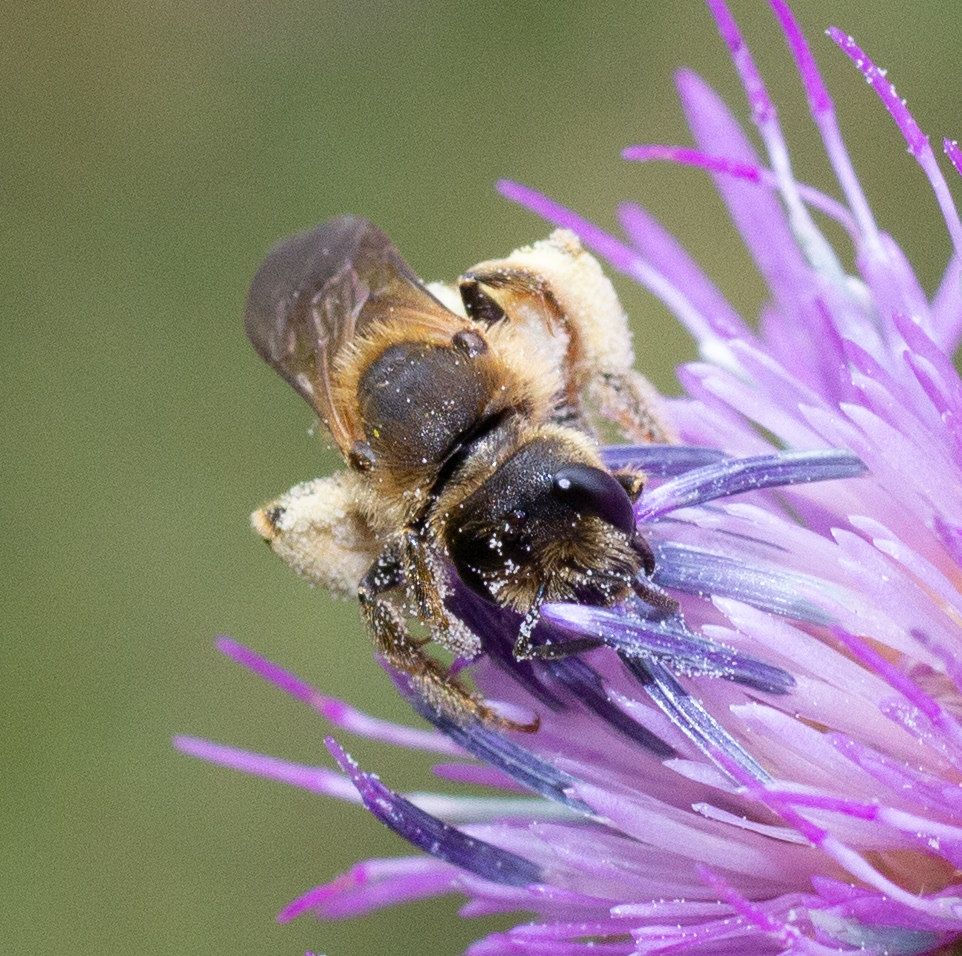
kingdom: Animalia
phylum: Arthropoda
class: Insecta
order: Hymenoptera
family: Halictidae
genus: Halictus
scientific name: Halictus scabiosae
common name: Great banded furrow bee
